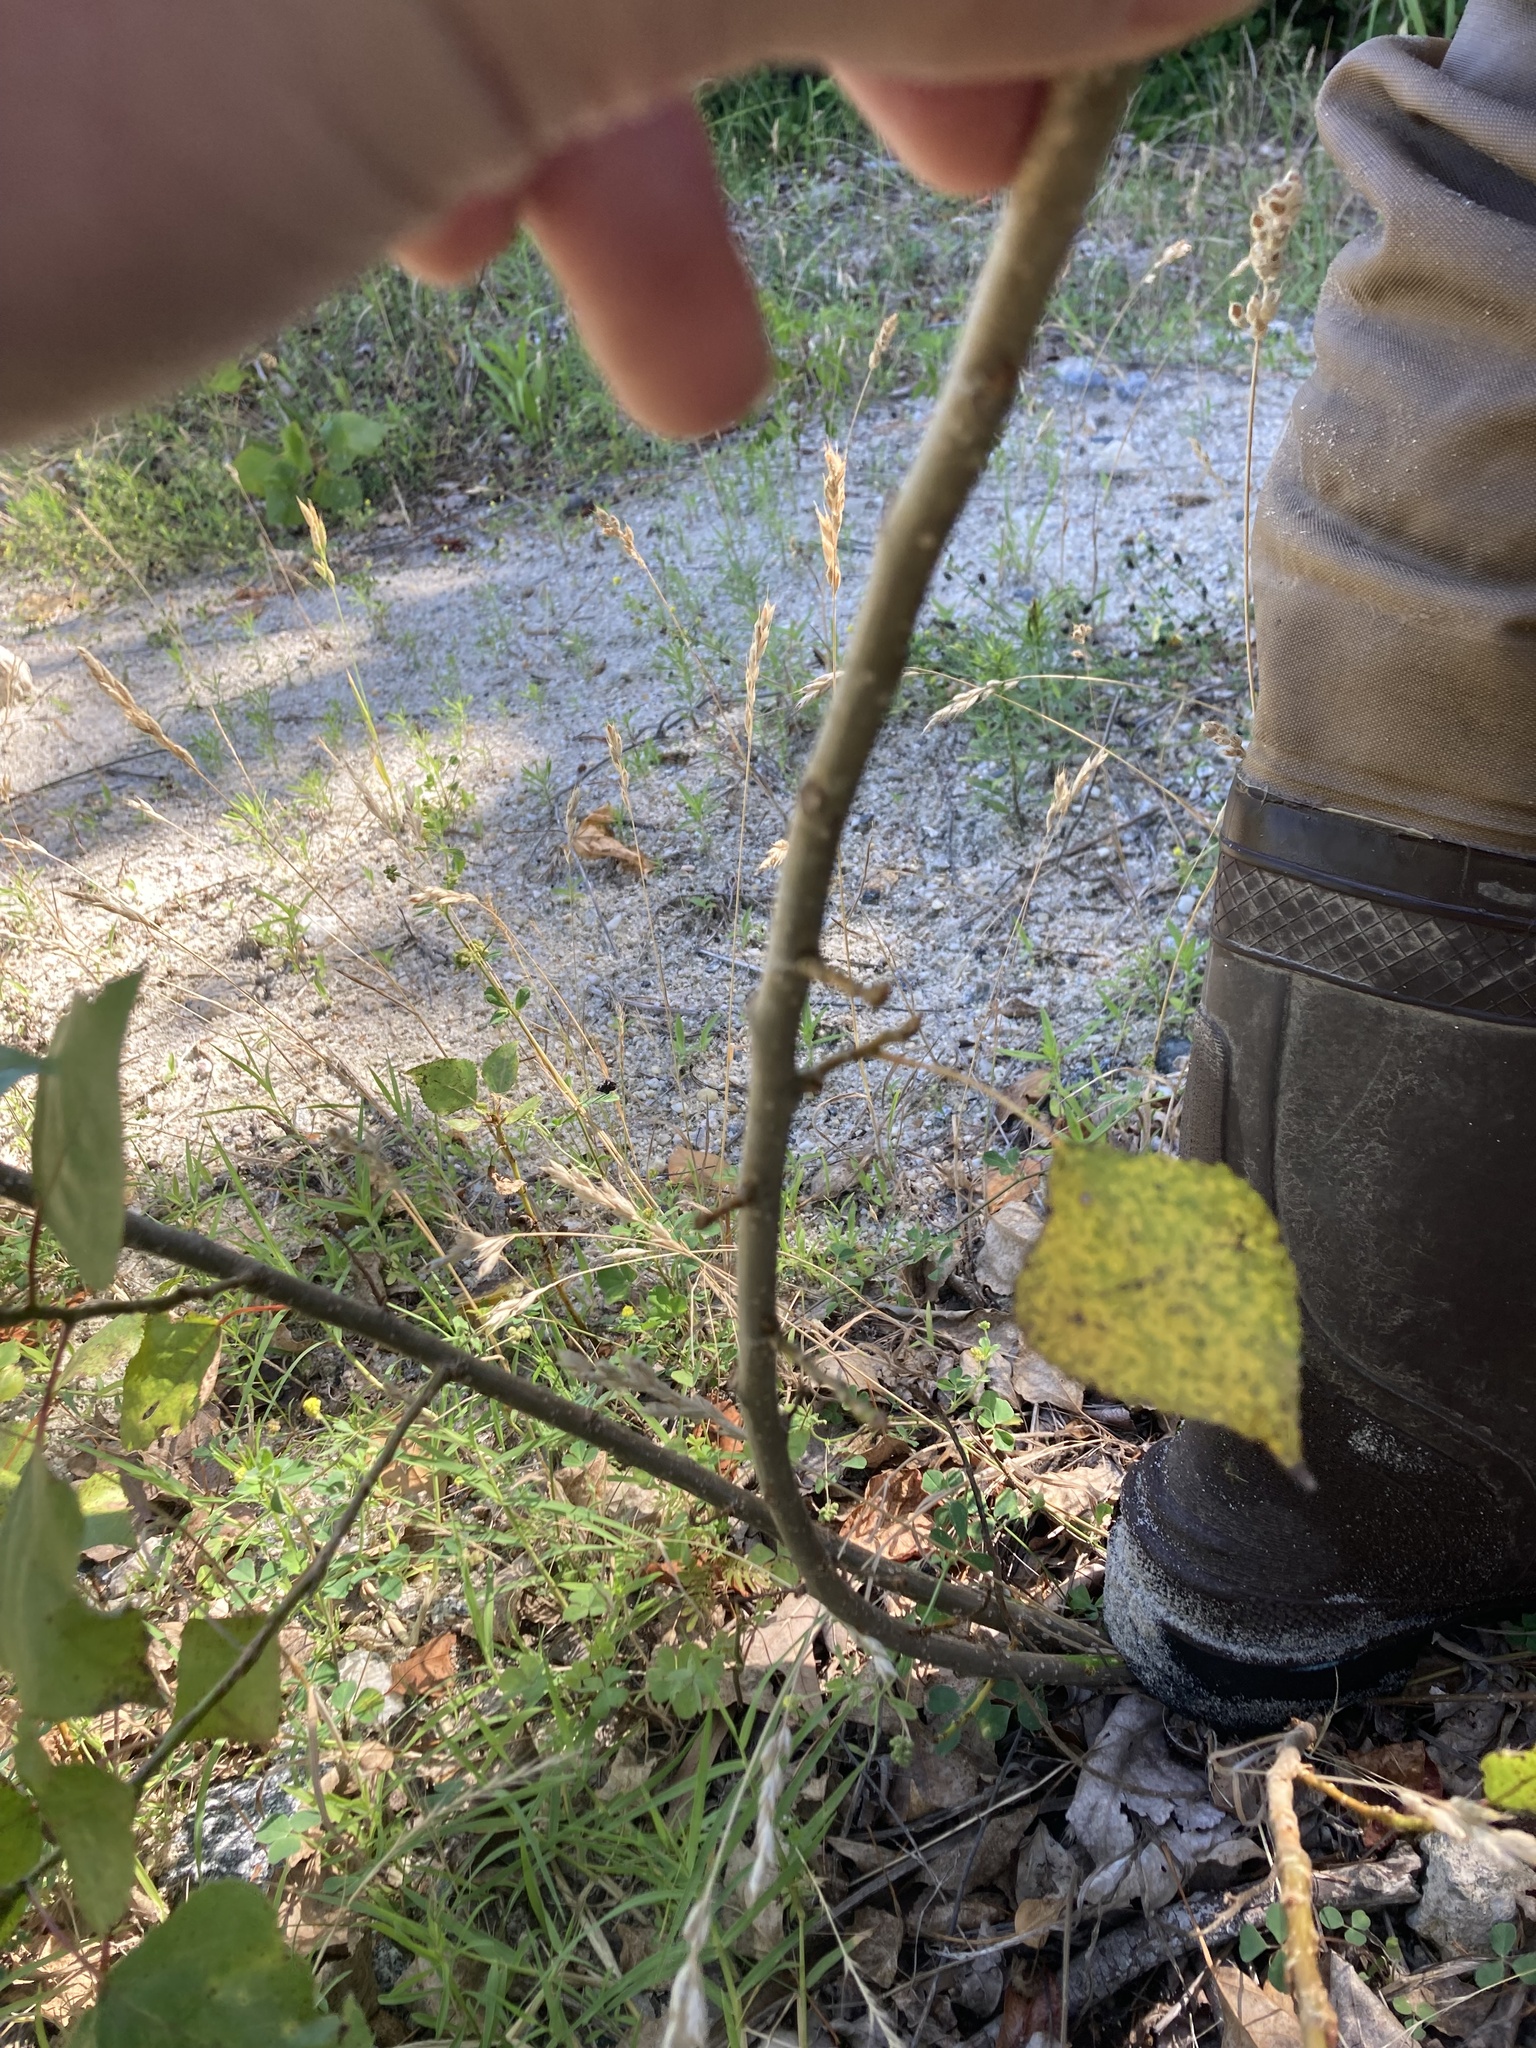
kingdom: Plantae
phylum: Tracheophyta
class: Magnoliopsida
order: Malpighiales
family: Salicaceae
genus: Populus
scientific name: Populus deltoides
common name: Eastern cottonwood
